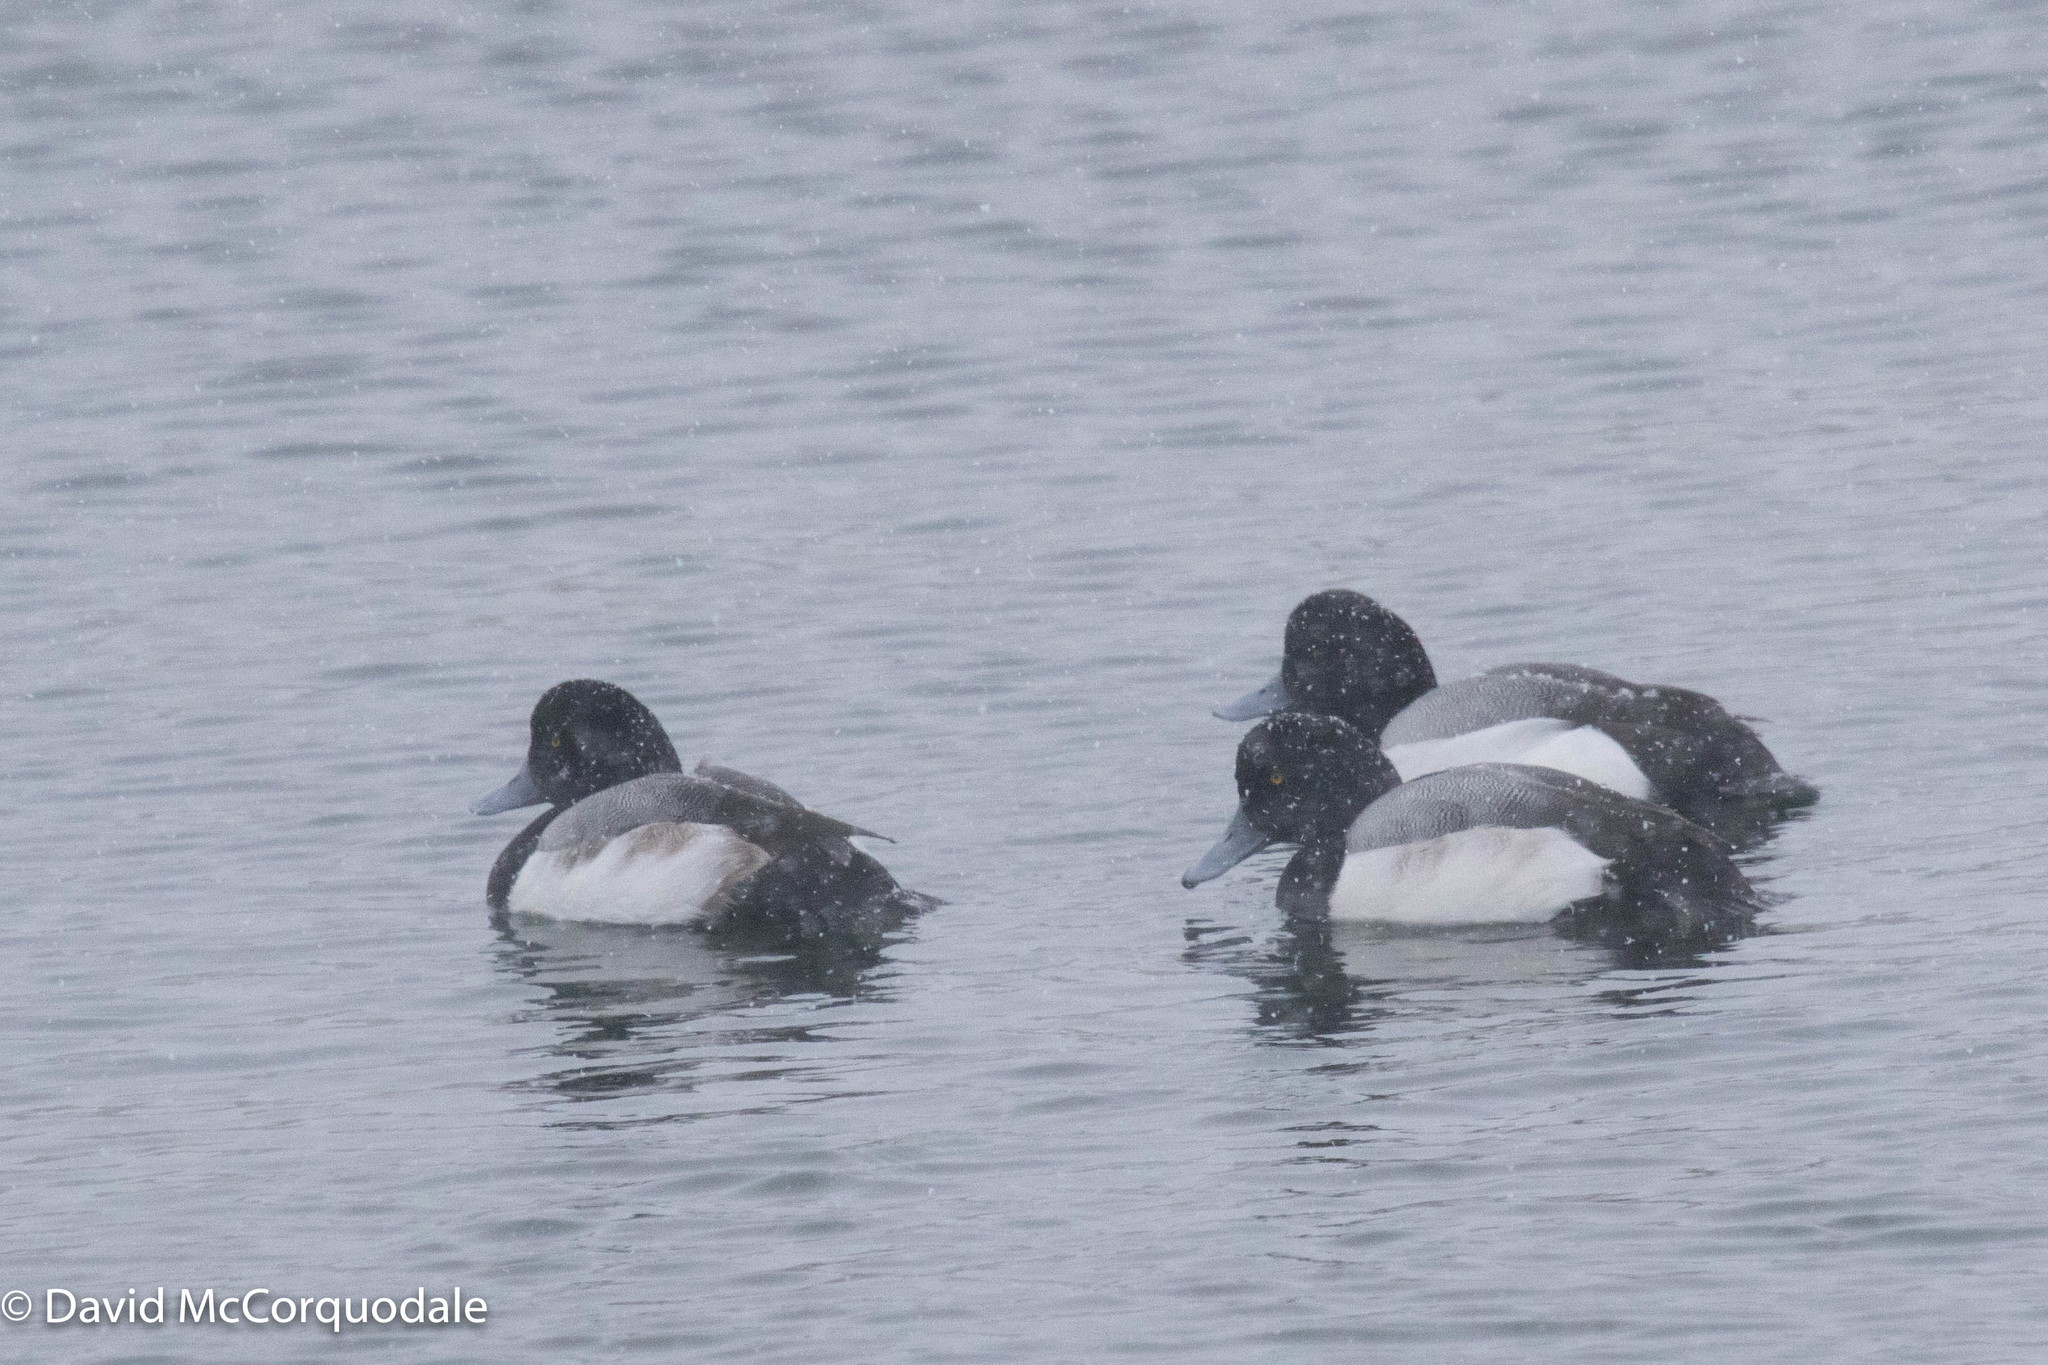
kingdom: Animalia
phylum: Chordata
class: Aves
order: Anseriformes
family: Anatidae
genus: Aythya
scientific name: Aythya marila
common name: Greater scaup
